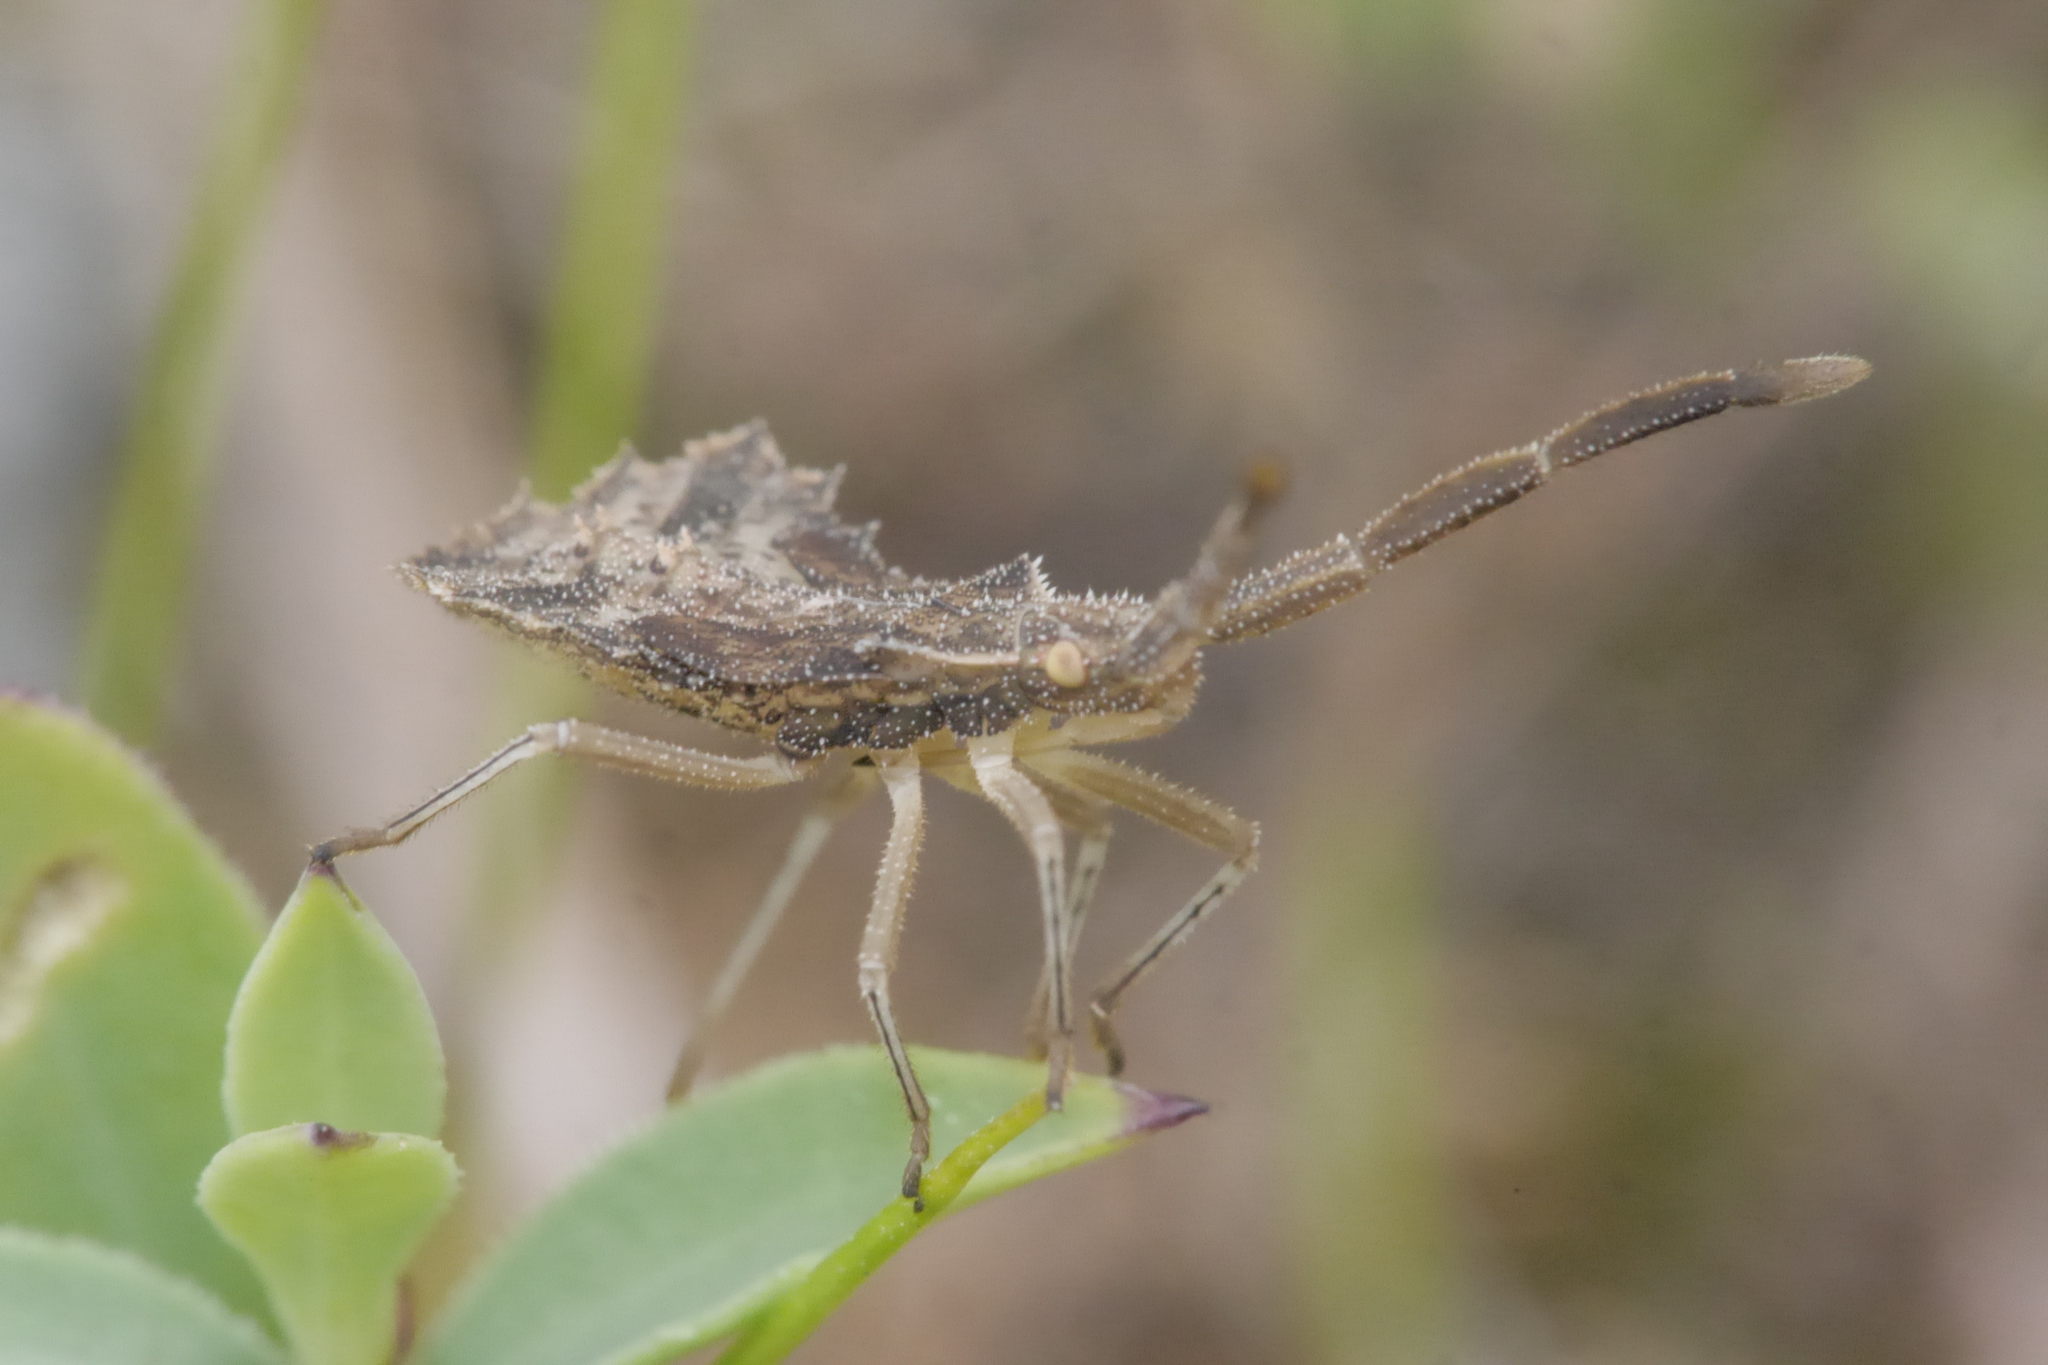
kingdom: Animalia
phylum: Arthropoda
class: Insecta
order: Hemiptera
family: Coreidae
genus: Syromastus
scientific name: Syromastus rhombeus
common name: Rhombic leatherbug
